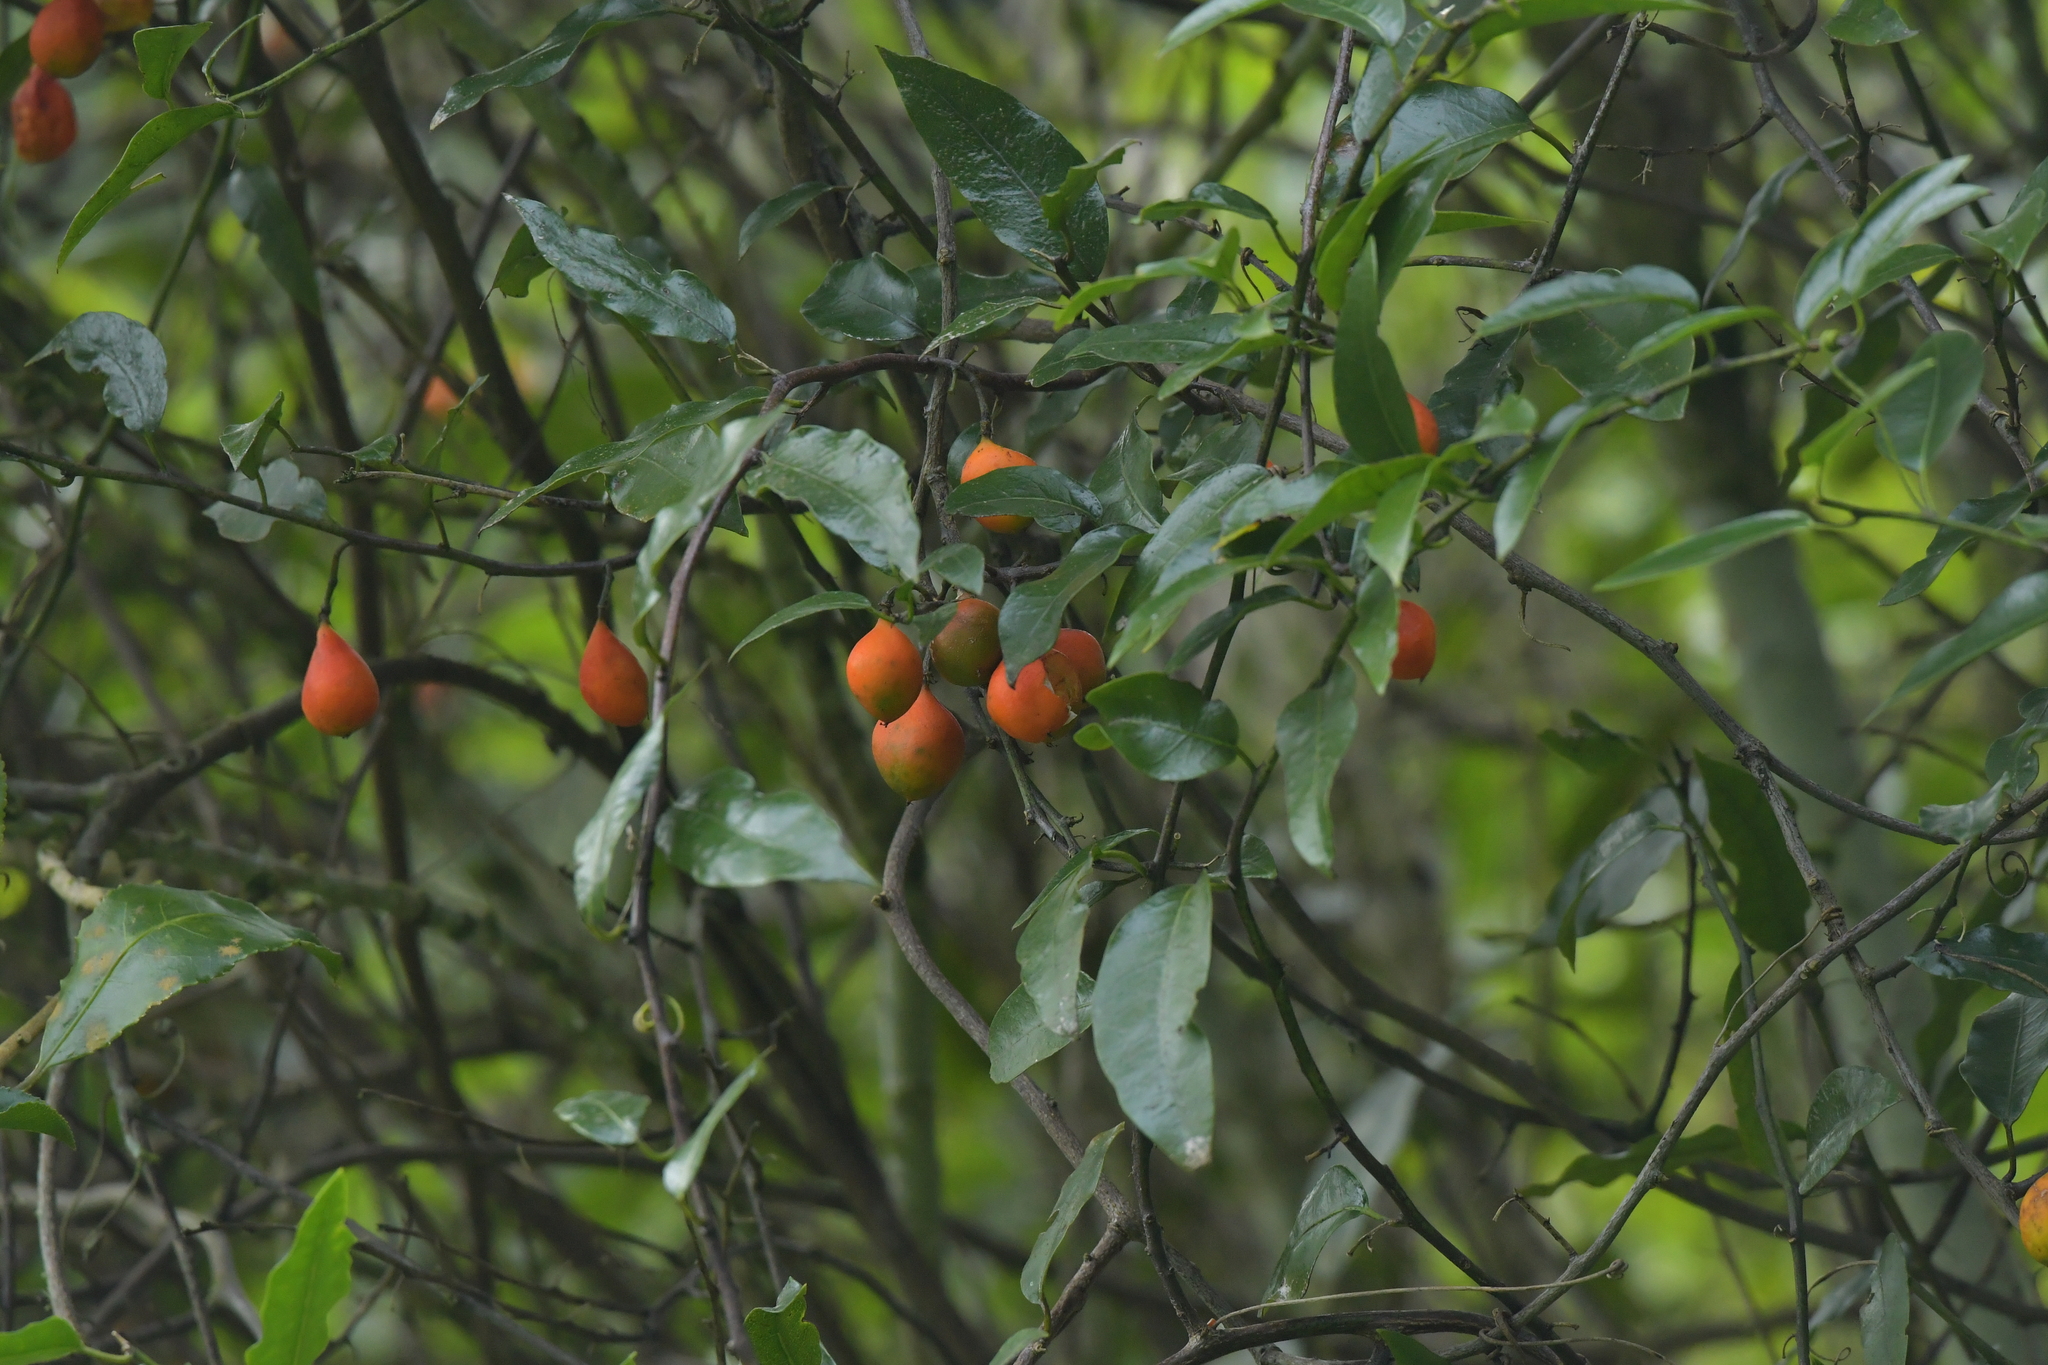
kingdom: Plantae
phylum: Tracheophyta
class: Magnoliopsida
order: Malpighiales
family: Passifloraceae
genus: Passiflora
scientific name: Passiflora tetrandra
